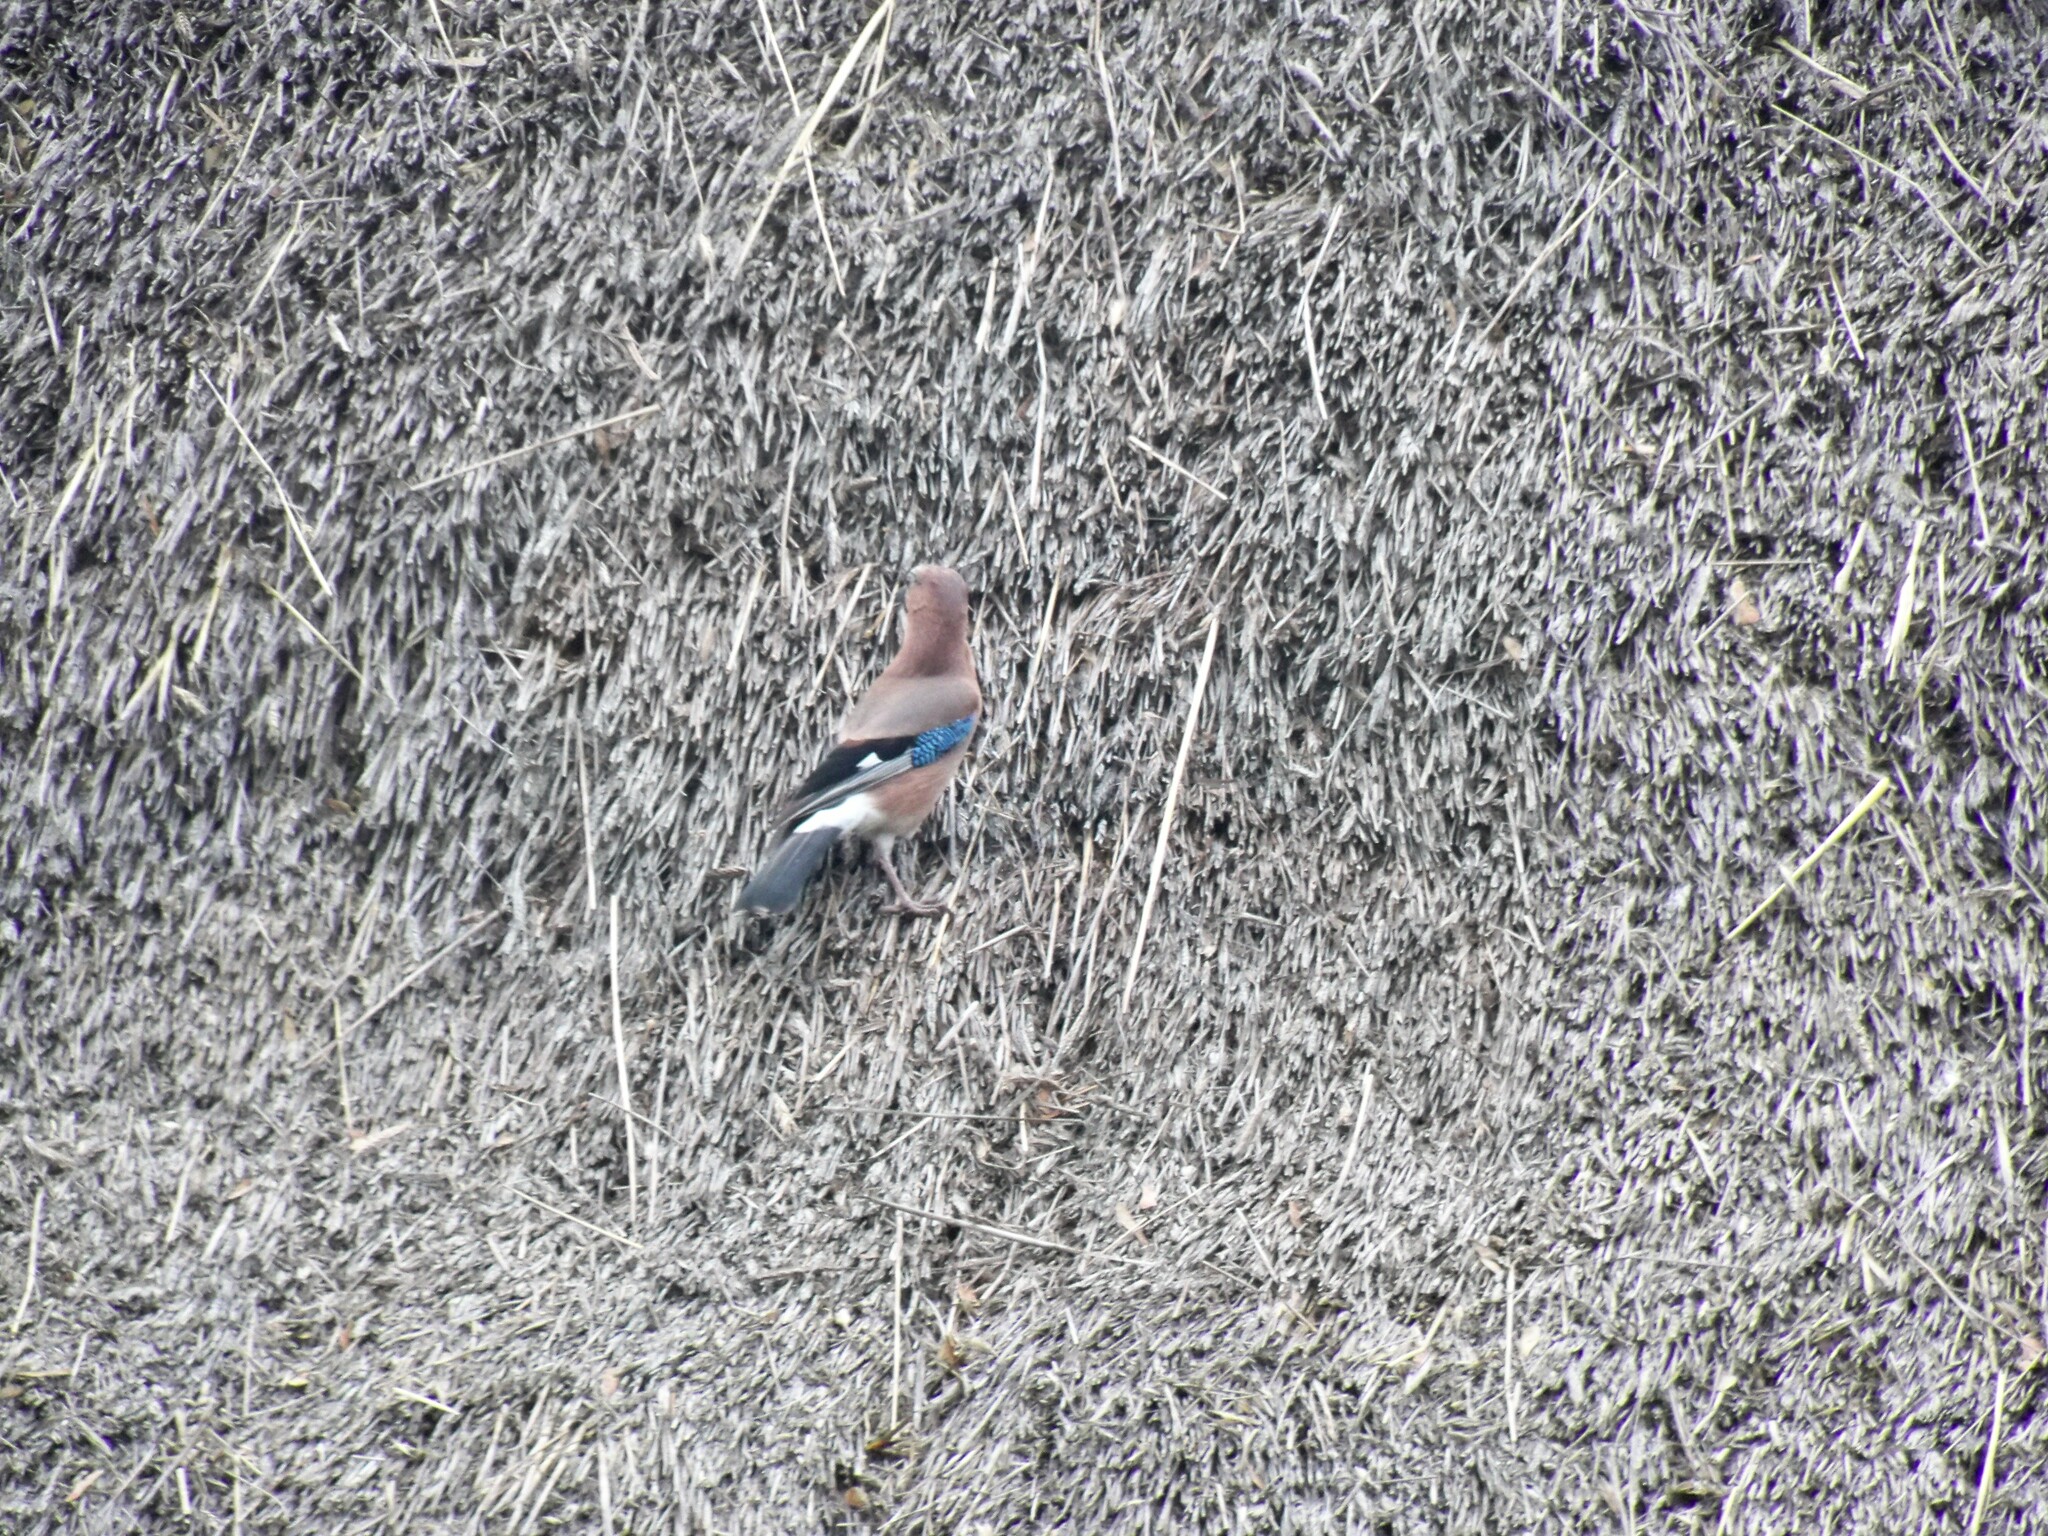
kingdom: Animalia
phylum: Chordata
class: Aves
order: Passeriformes
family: Corvidae
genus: Garrulus
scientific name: Garrulus glandarius
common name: Eurasian jay
